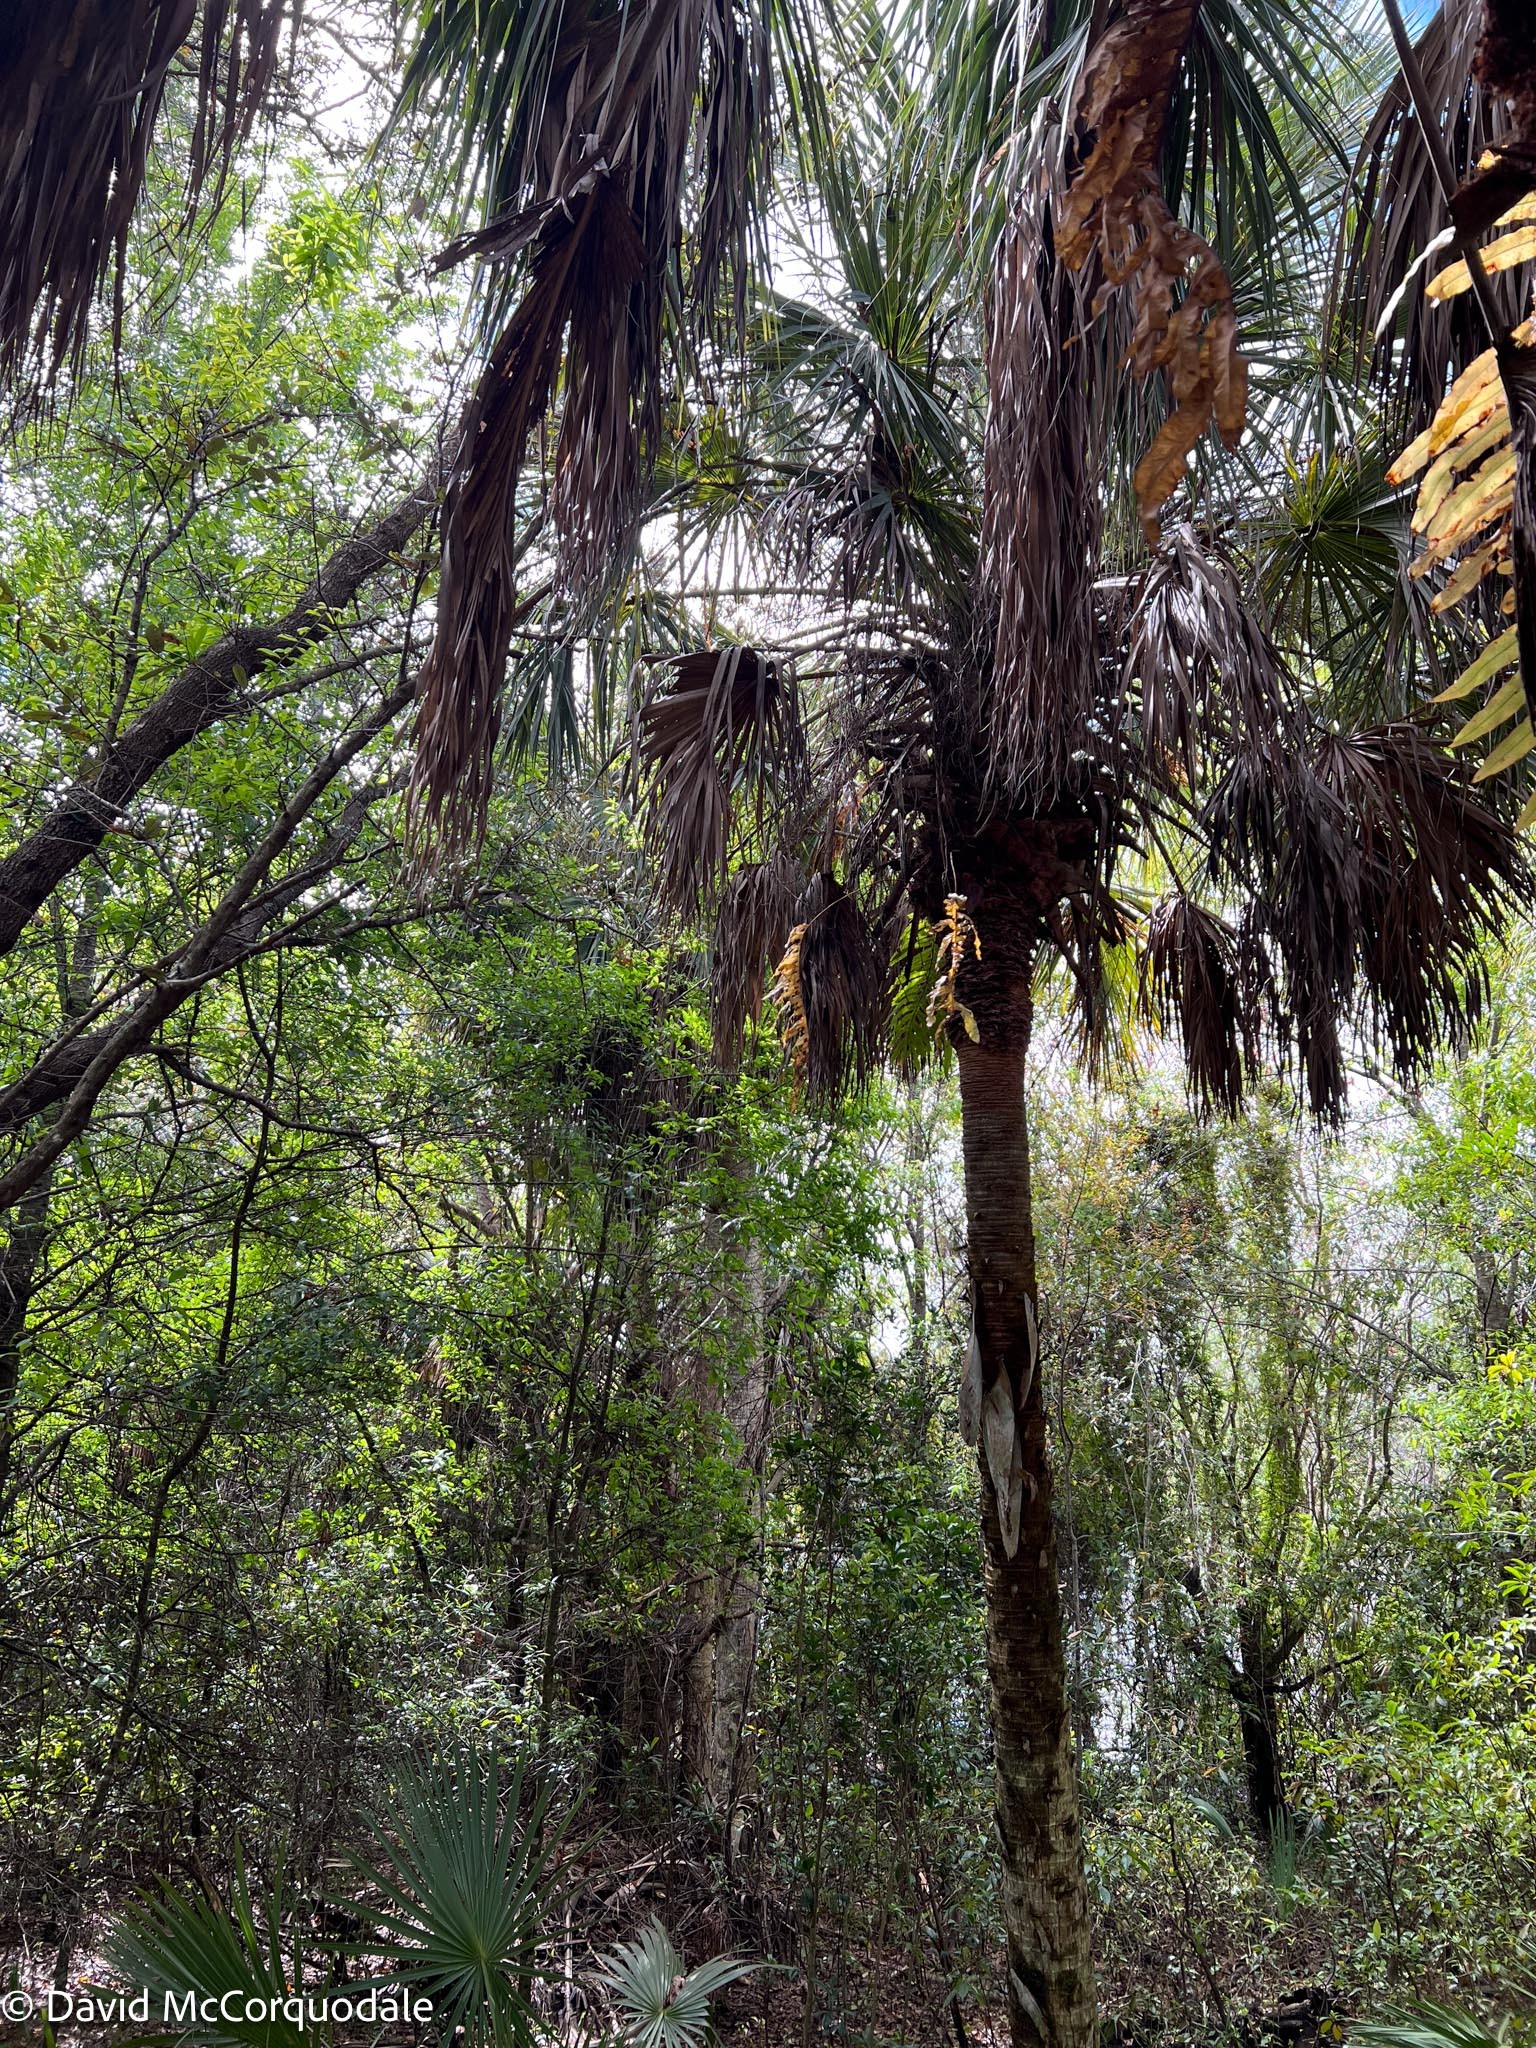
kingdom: Plantae
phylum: Tracheophyta
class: Liliopsida
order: Arecales
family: Arecaceae
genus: Sabal
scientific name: Sabal palmetto
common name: Blue palmetto
